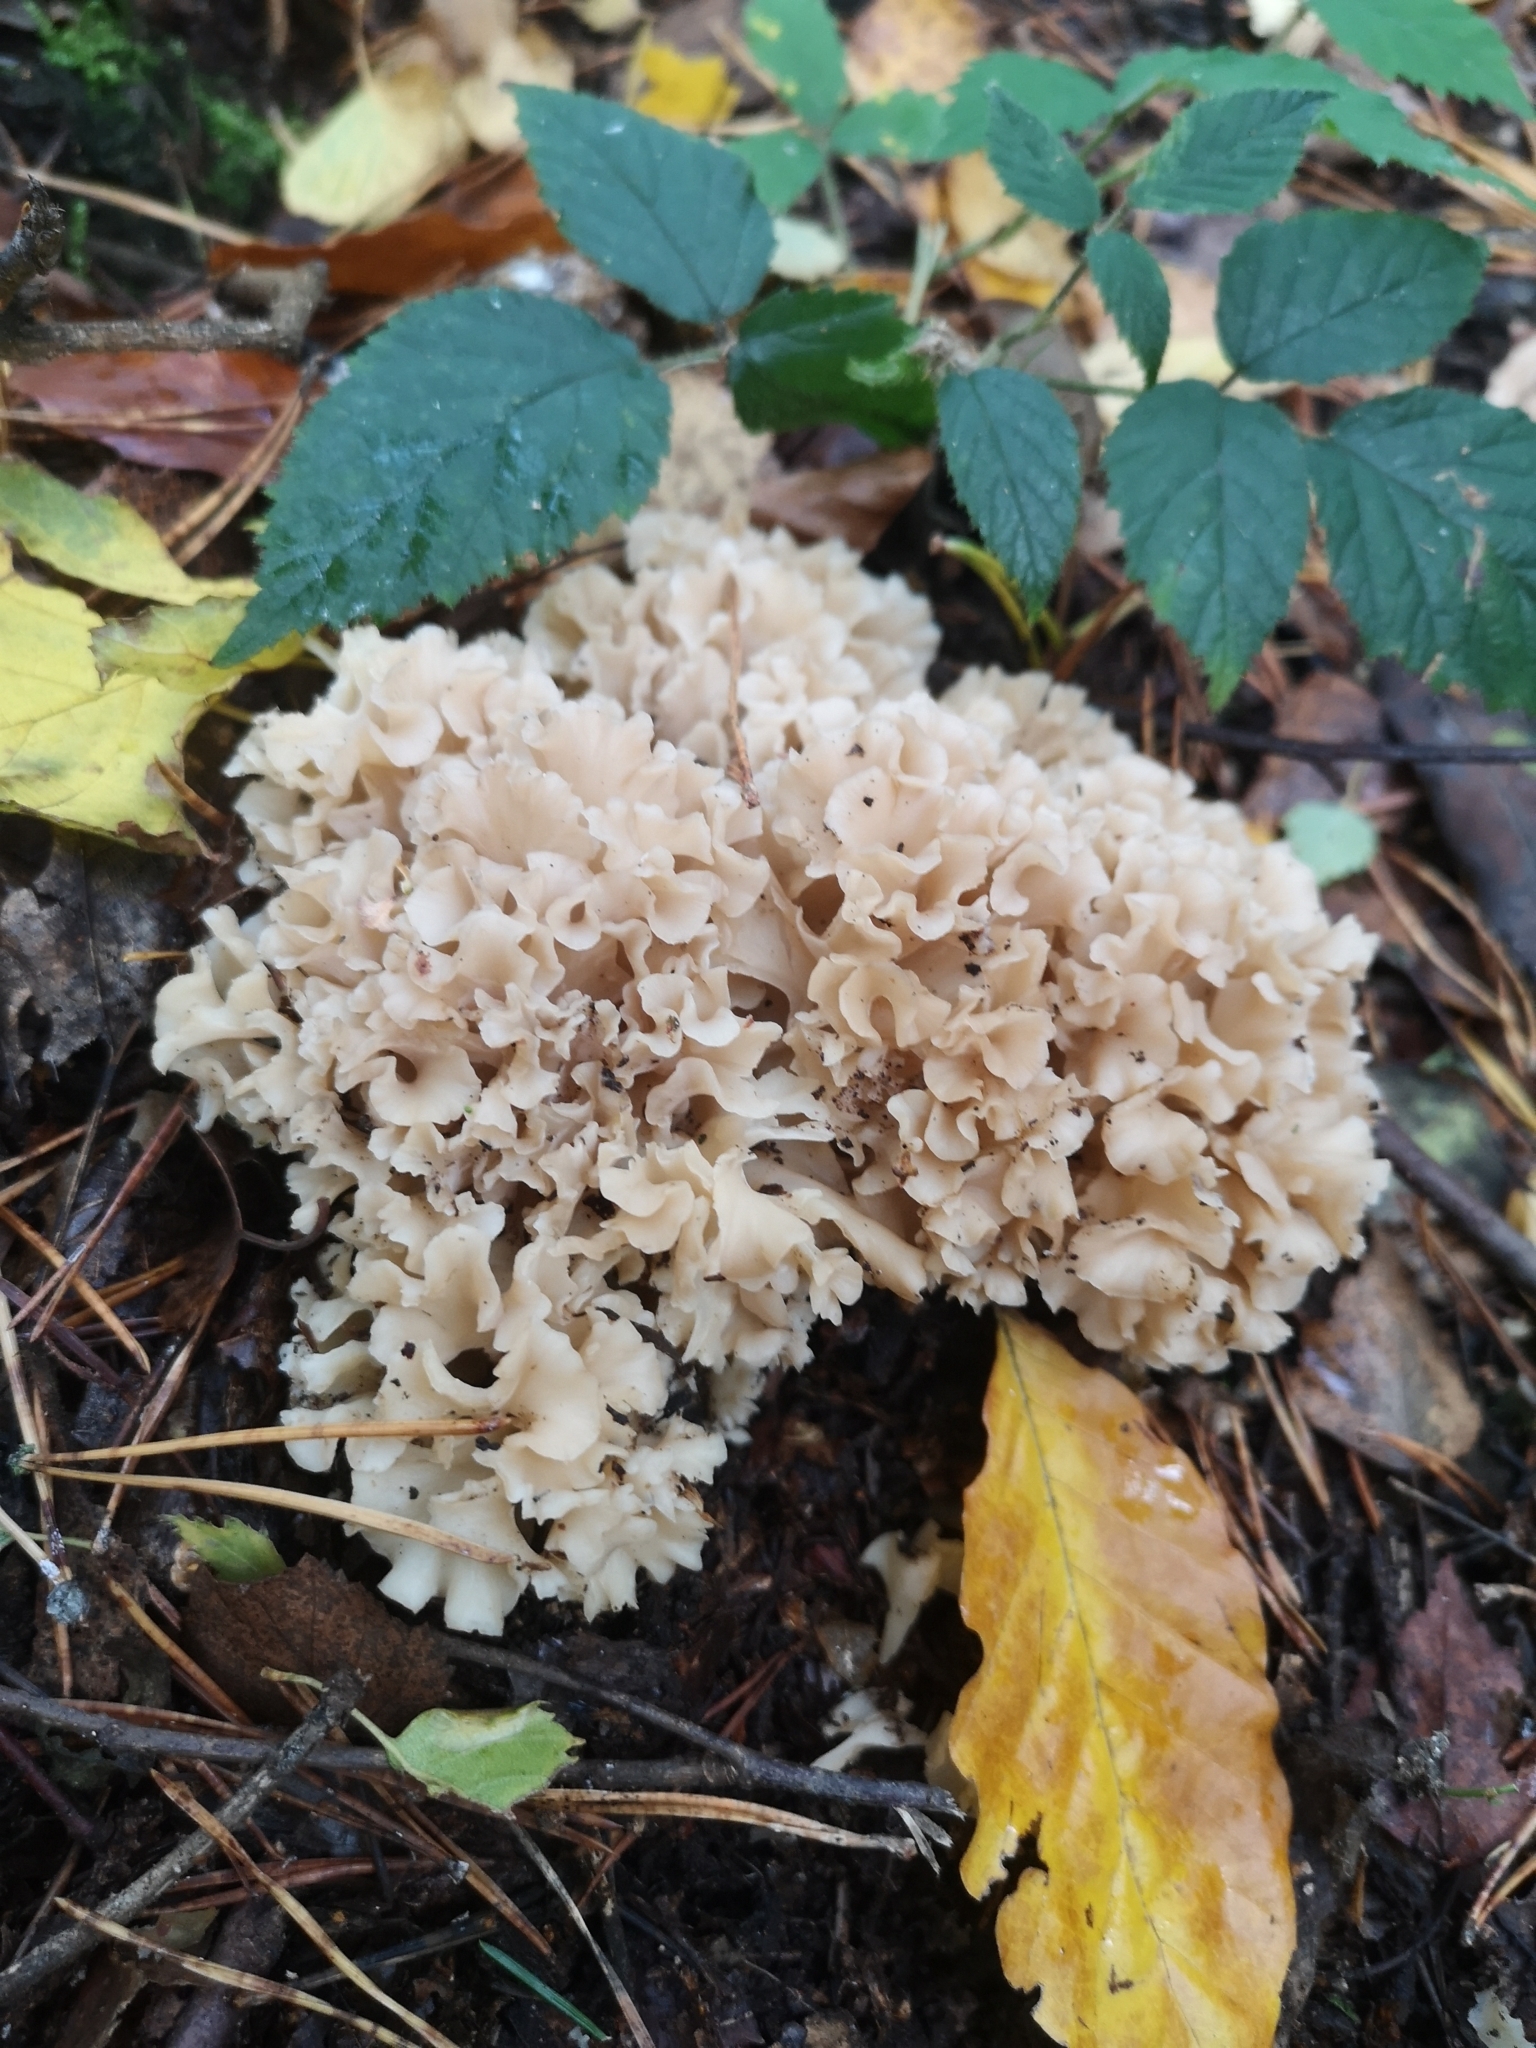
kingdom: Fungi
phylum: Basidiomycota
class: Agaricomycetes
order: Polyporales
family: Sparassidaceae
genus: Sparassis
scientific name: Sparassis crispa
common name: Brain fungus
